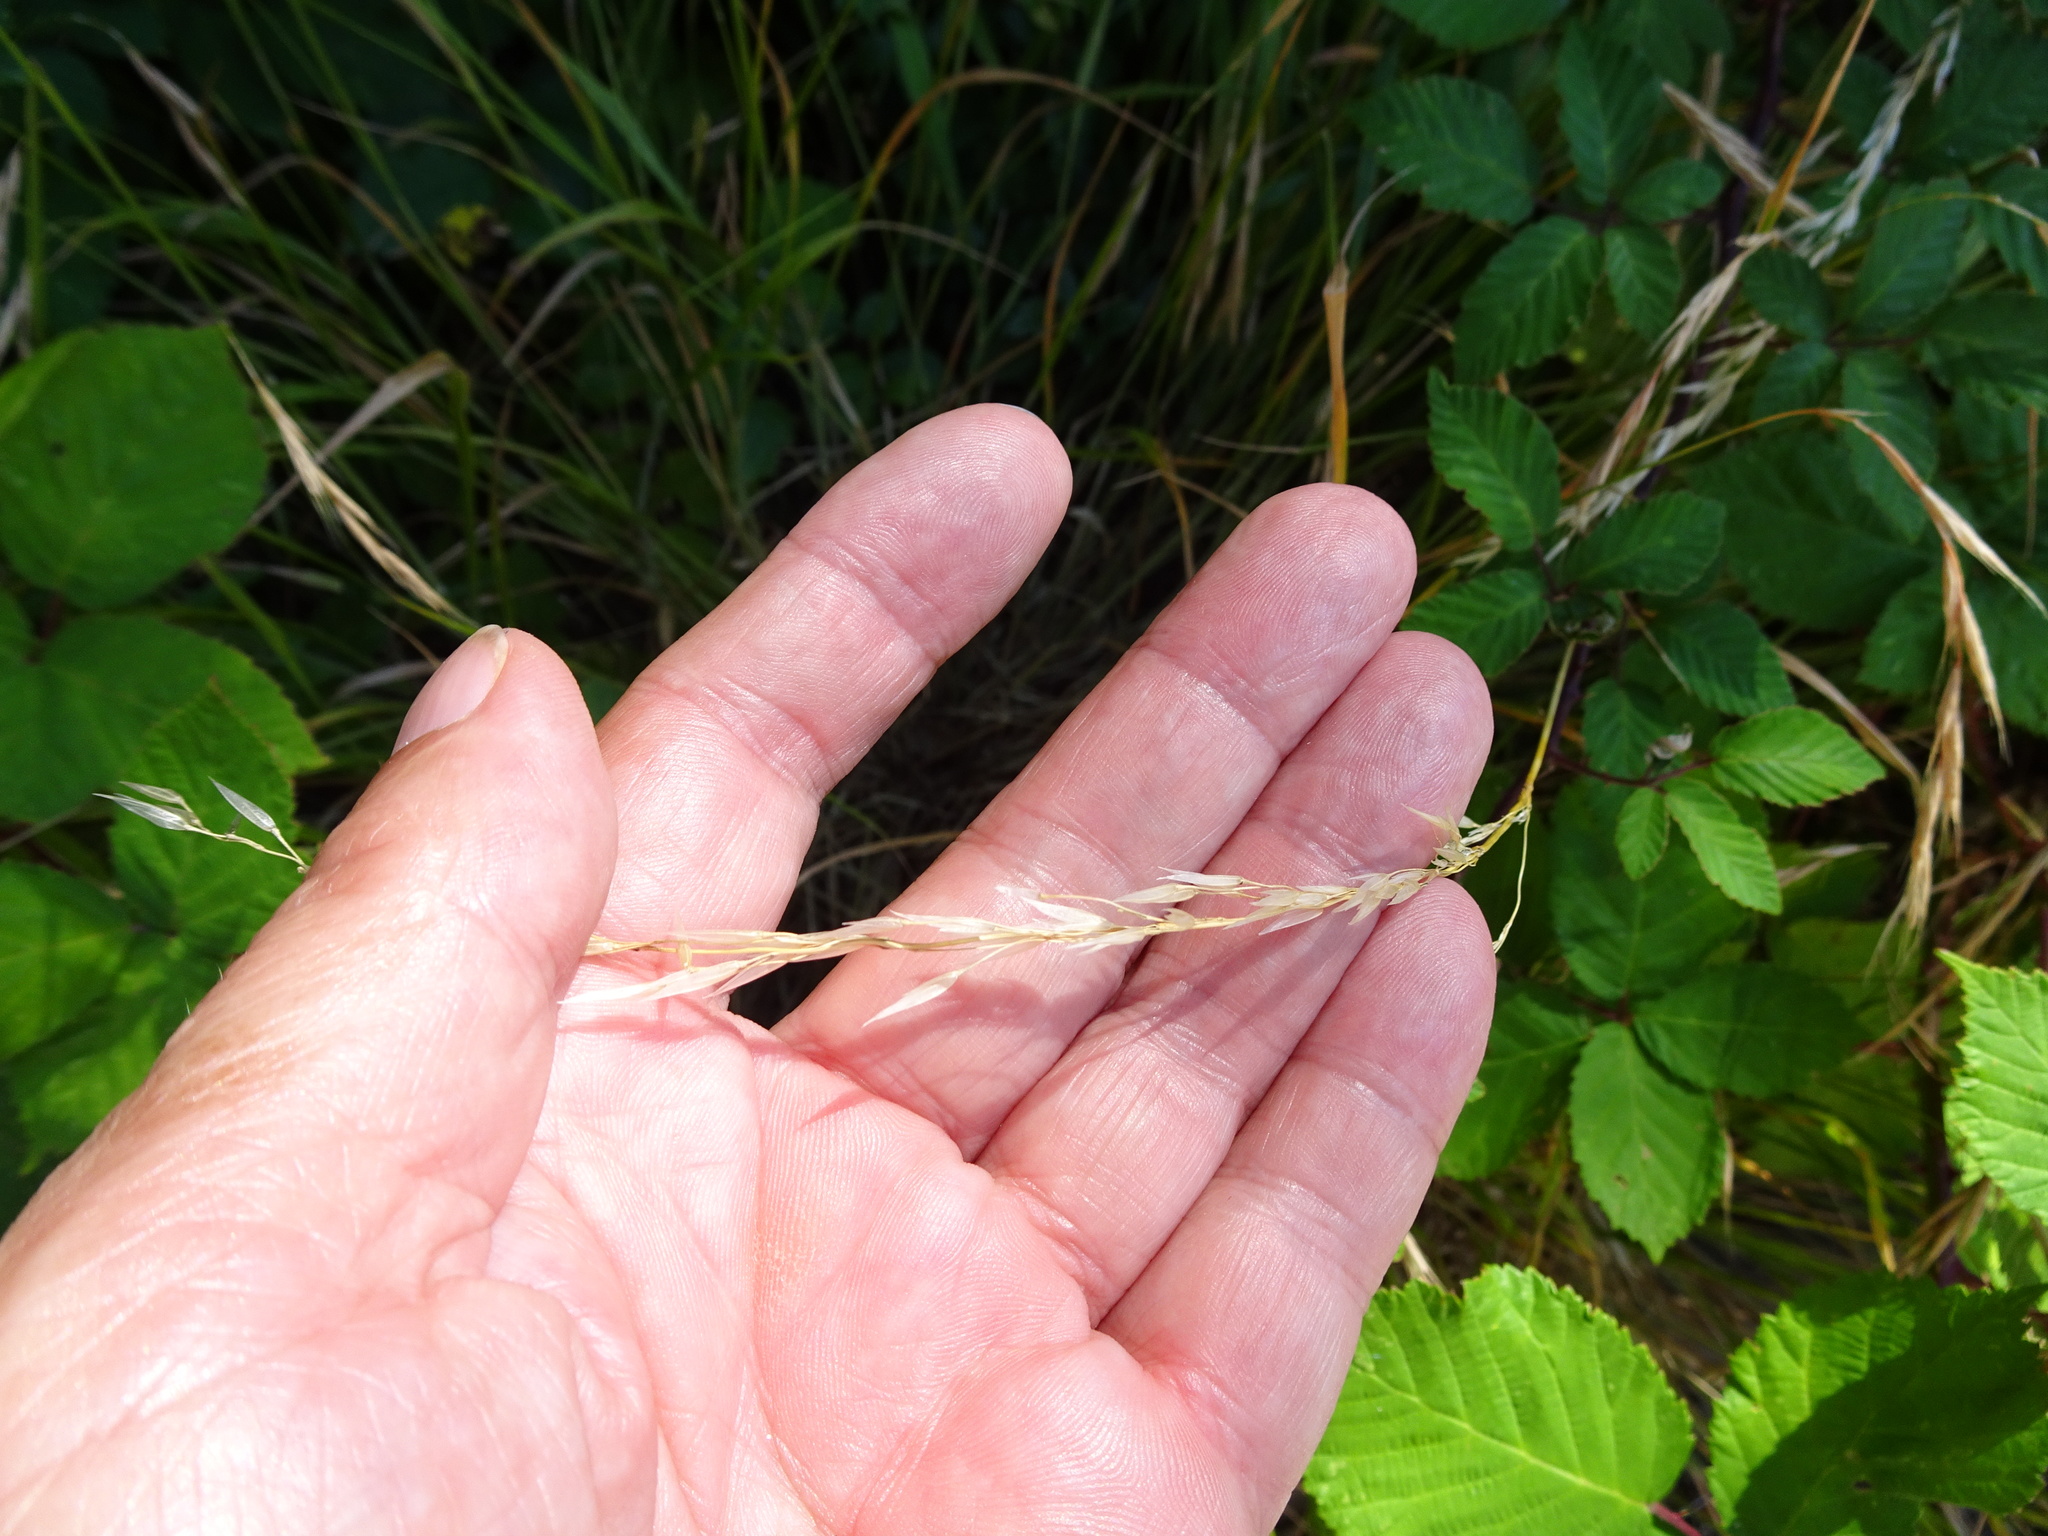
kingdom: Plantae
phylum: Tracheophyta
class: Liliopsida
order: Poales
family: Poaceae
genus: Arrhenatherum
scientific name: Arrhenatherum elatius
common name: Tall oatgrass
